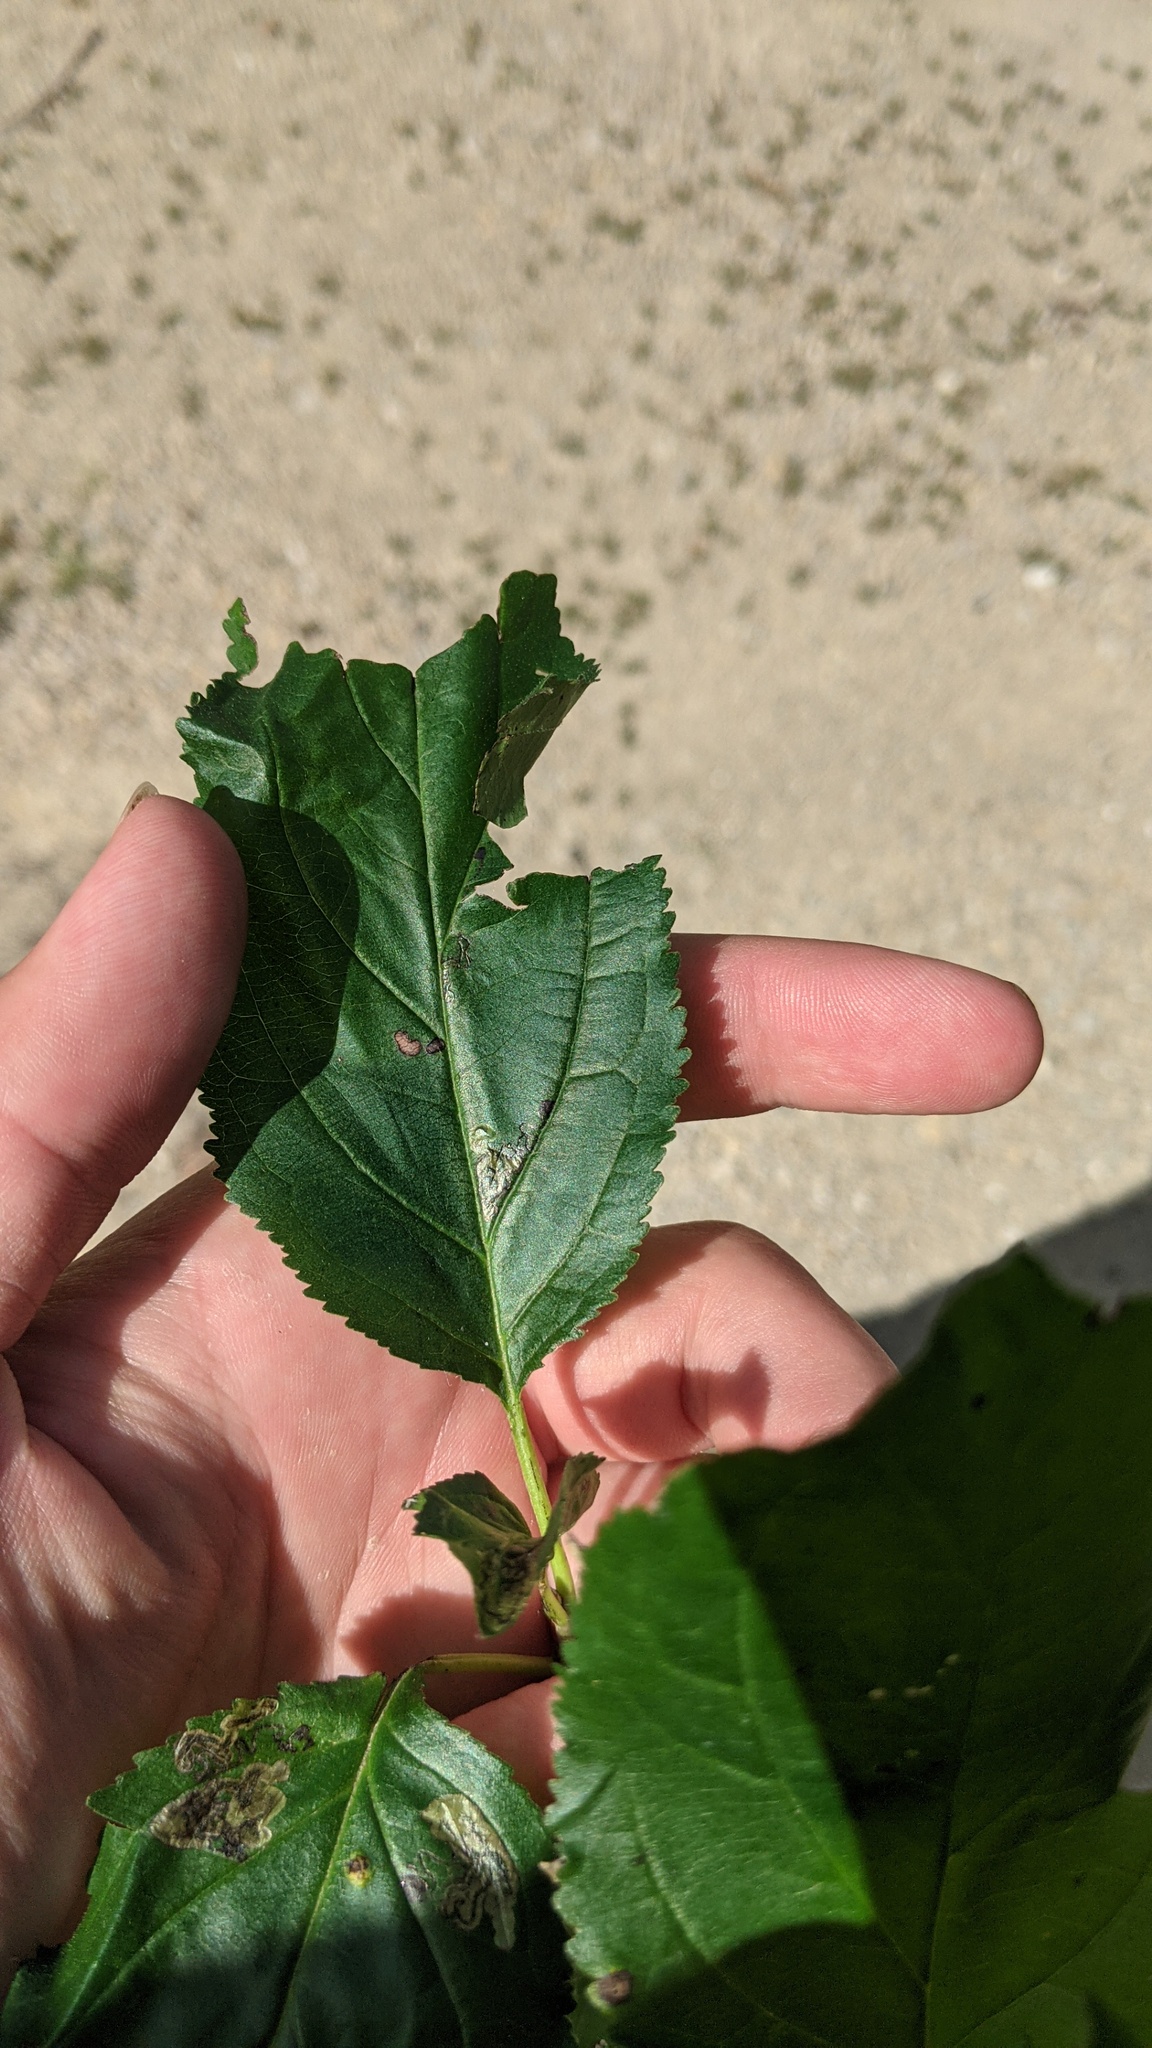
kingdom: Plantae
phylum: Tracheophyta
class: Magnoliopsida
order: Rosales
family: Rhamnaceae
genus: Rhamnus
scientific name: Rhamnus cathartica
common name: Common buckthorn
